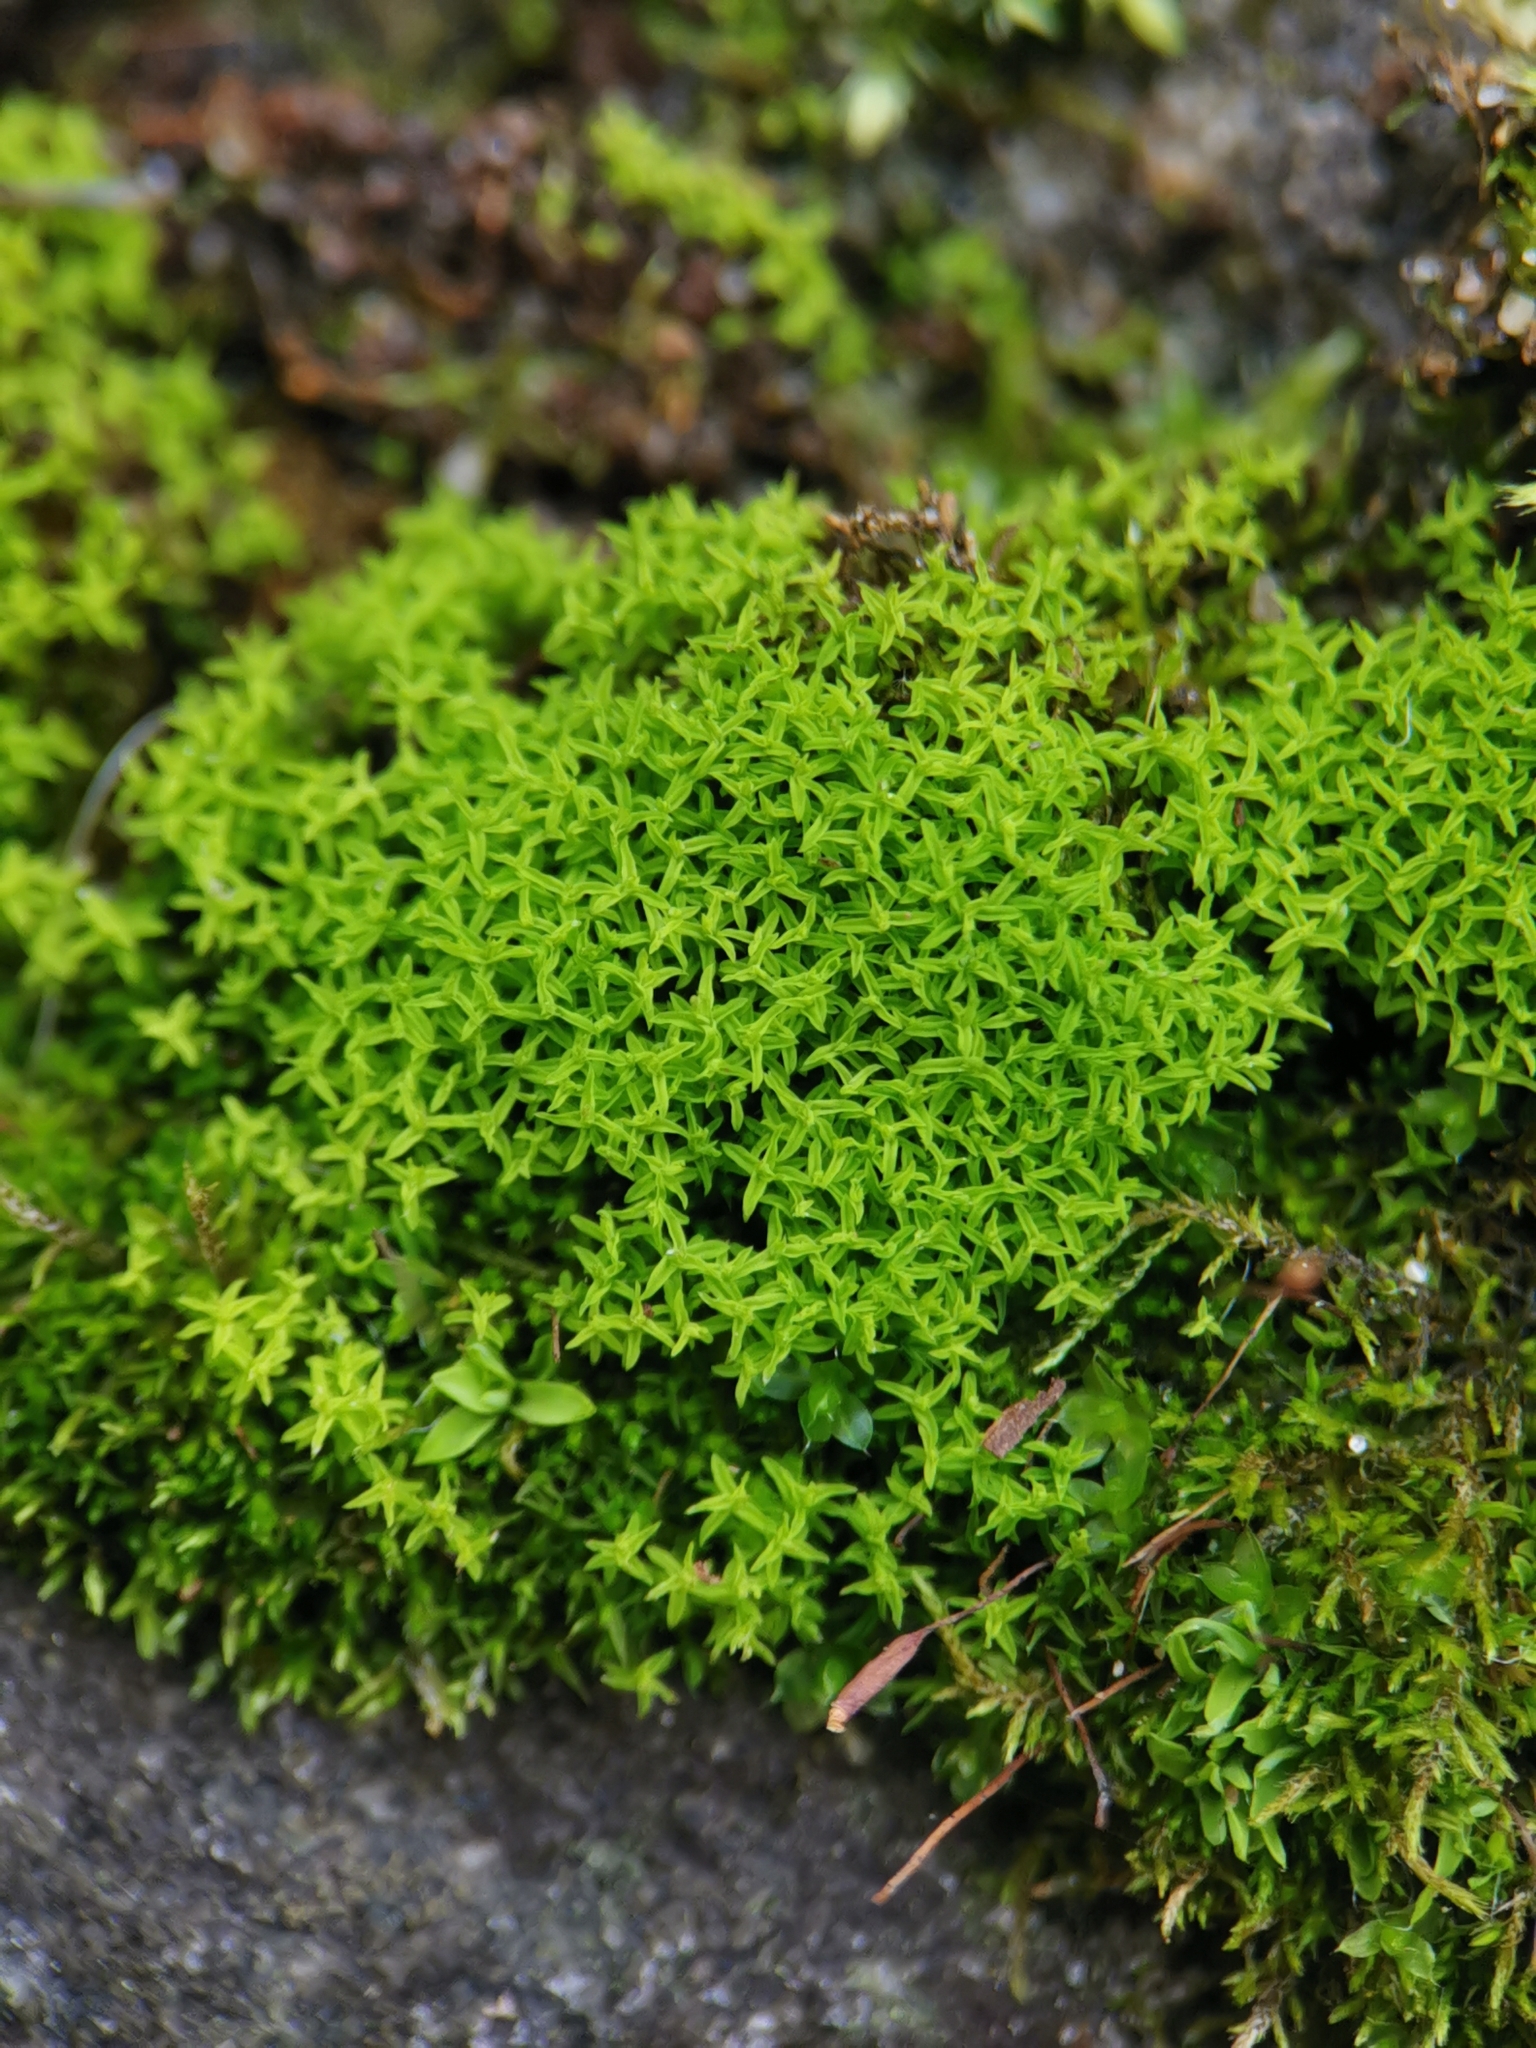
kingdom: Plantae
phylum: Bryophyta
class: Bryopsida
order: Pottiales
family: Pottiaceae
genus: Streblotrichum
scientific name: Streblotrichum convolutum
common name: Lesser bird's-claw beard-moss
